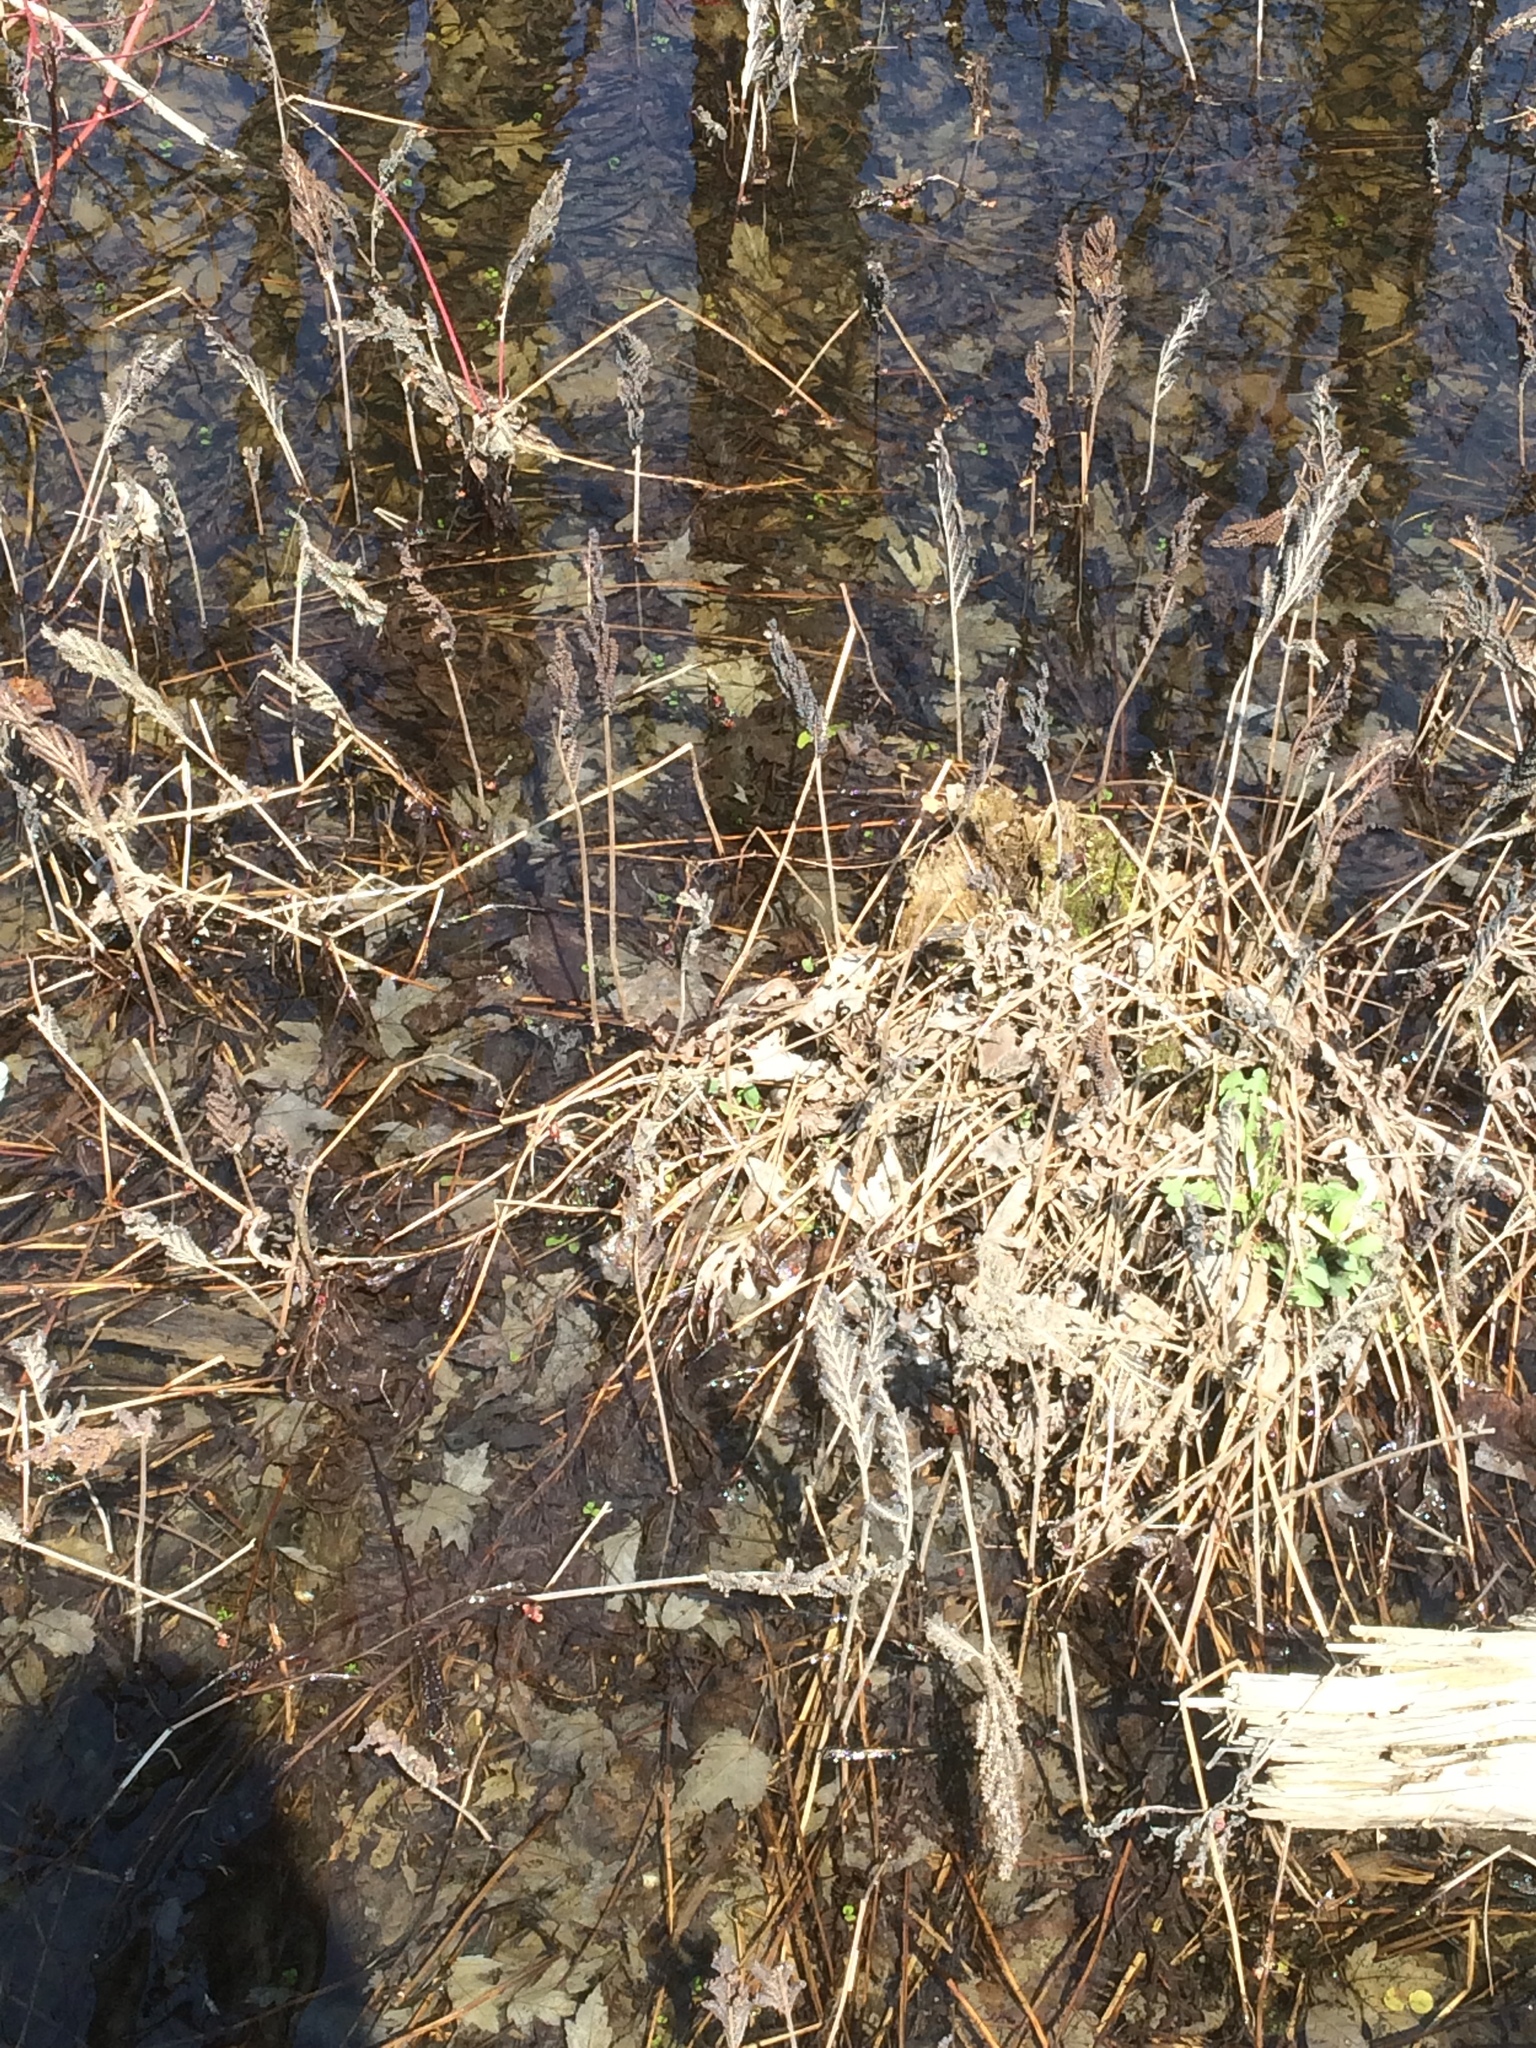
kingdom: Plantae
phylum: Tracheophyta
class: Polypodiopsida
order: Polypodiales
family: Onocleaceae
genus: Onoclea
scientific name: Onoclea sensibilis
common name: Sensitive fern
